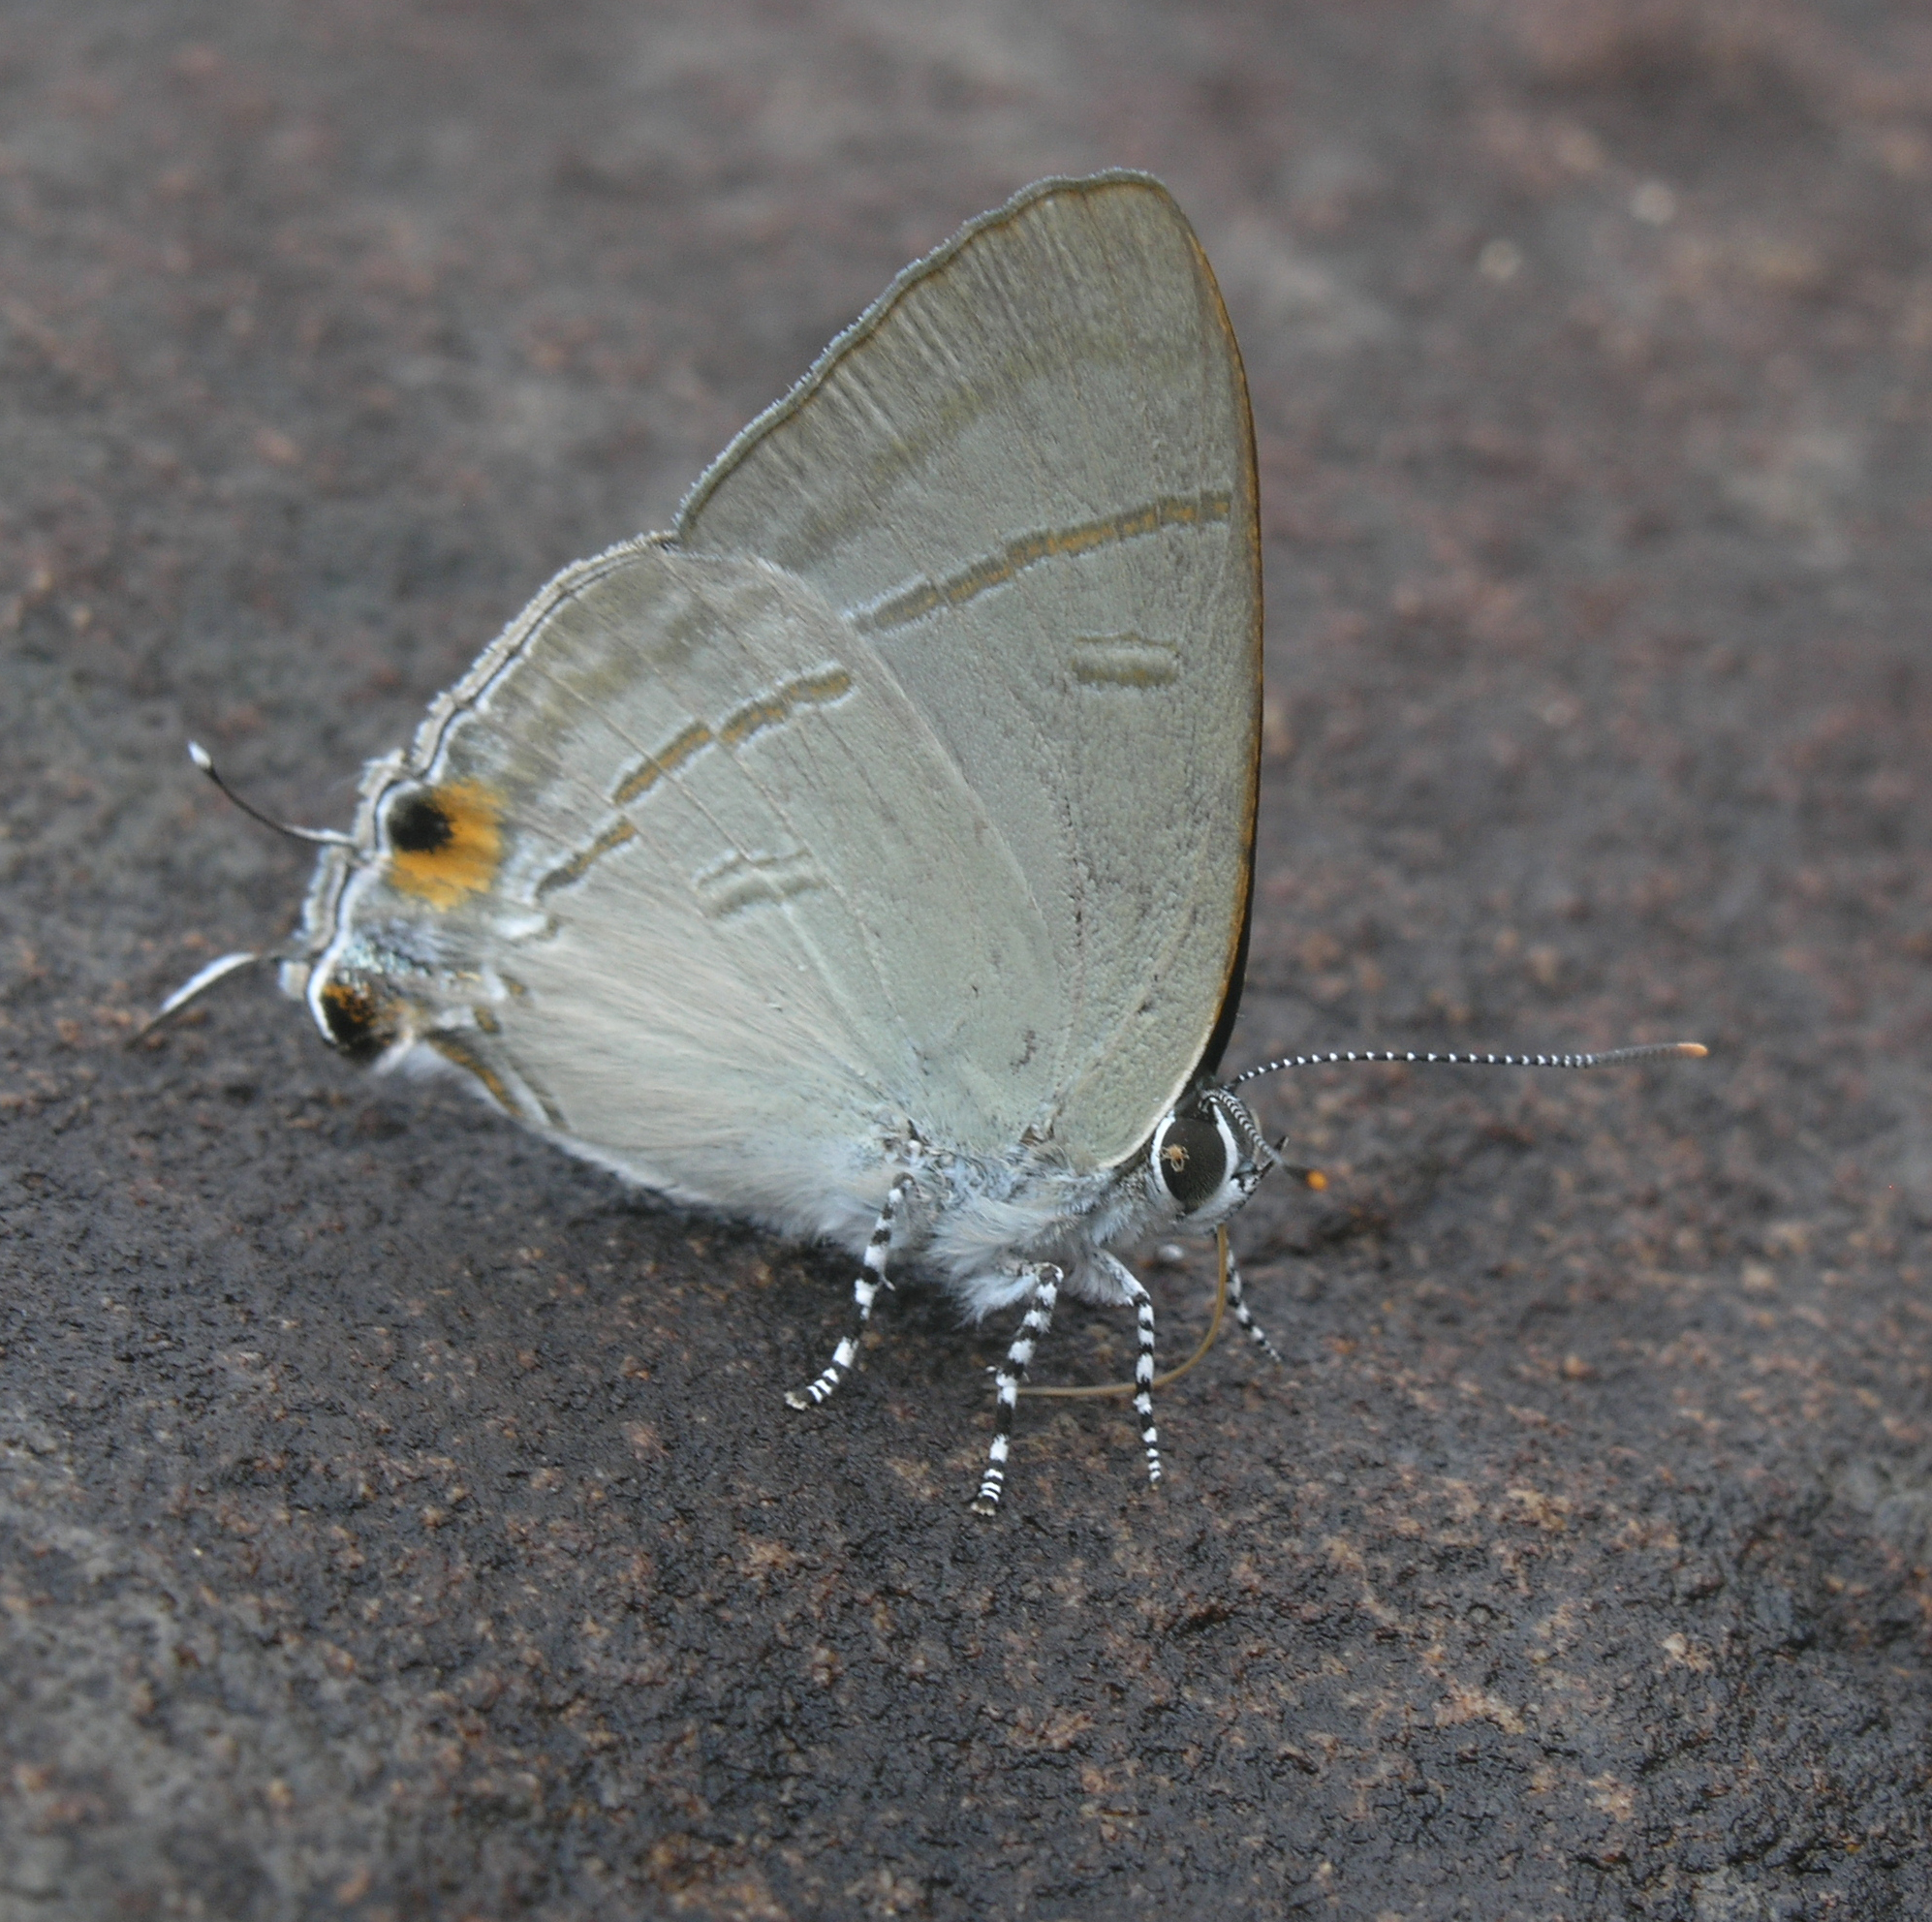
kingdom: Animalia
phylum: Arthropoda
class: Insecta
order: Lepidoptera
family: Lycaenidae
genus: Hypolycaena
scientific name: Hypolycaena erylus
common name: Common tit
